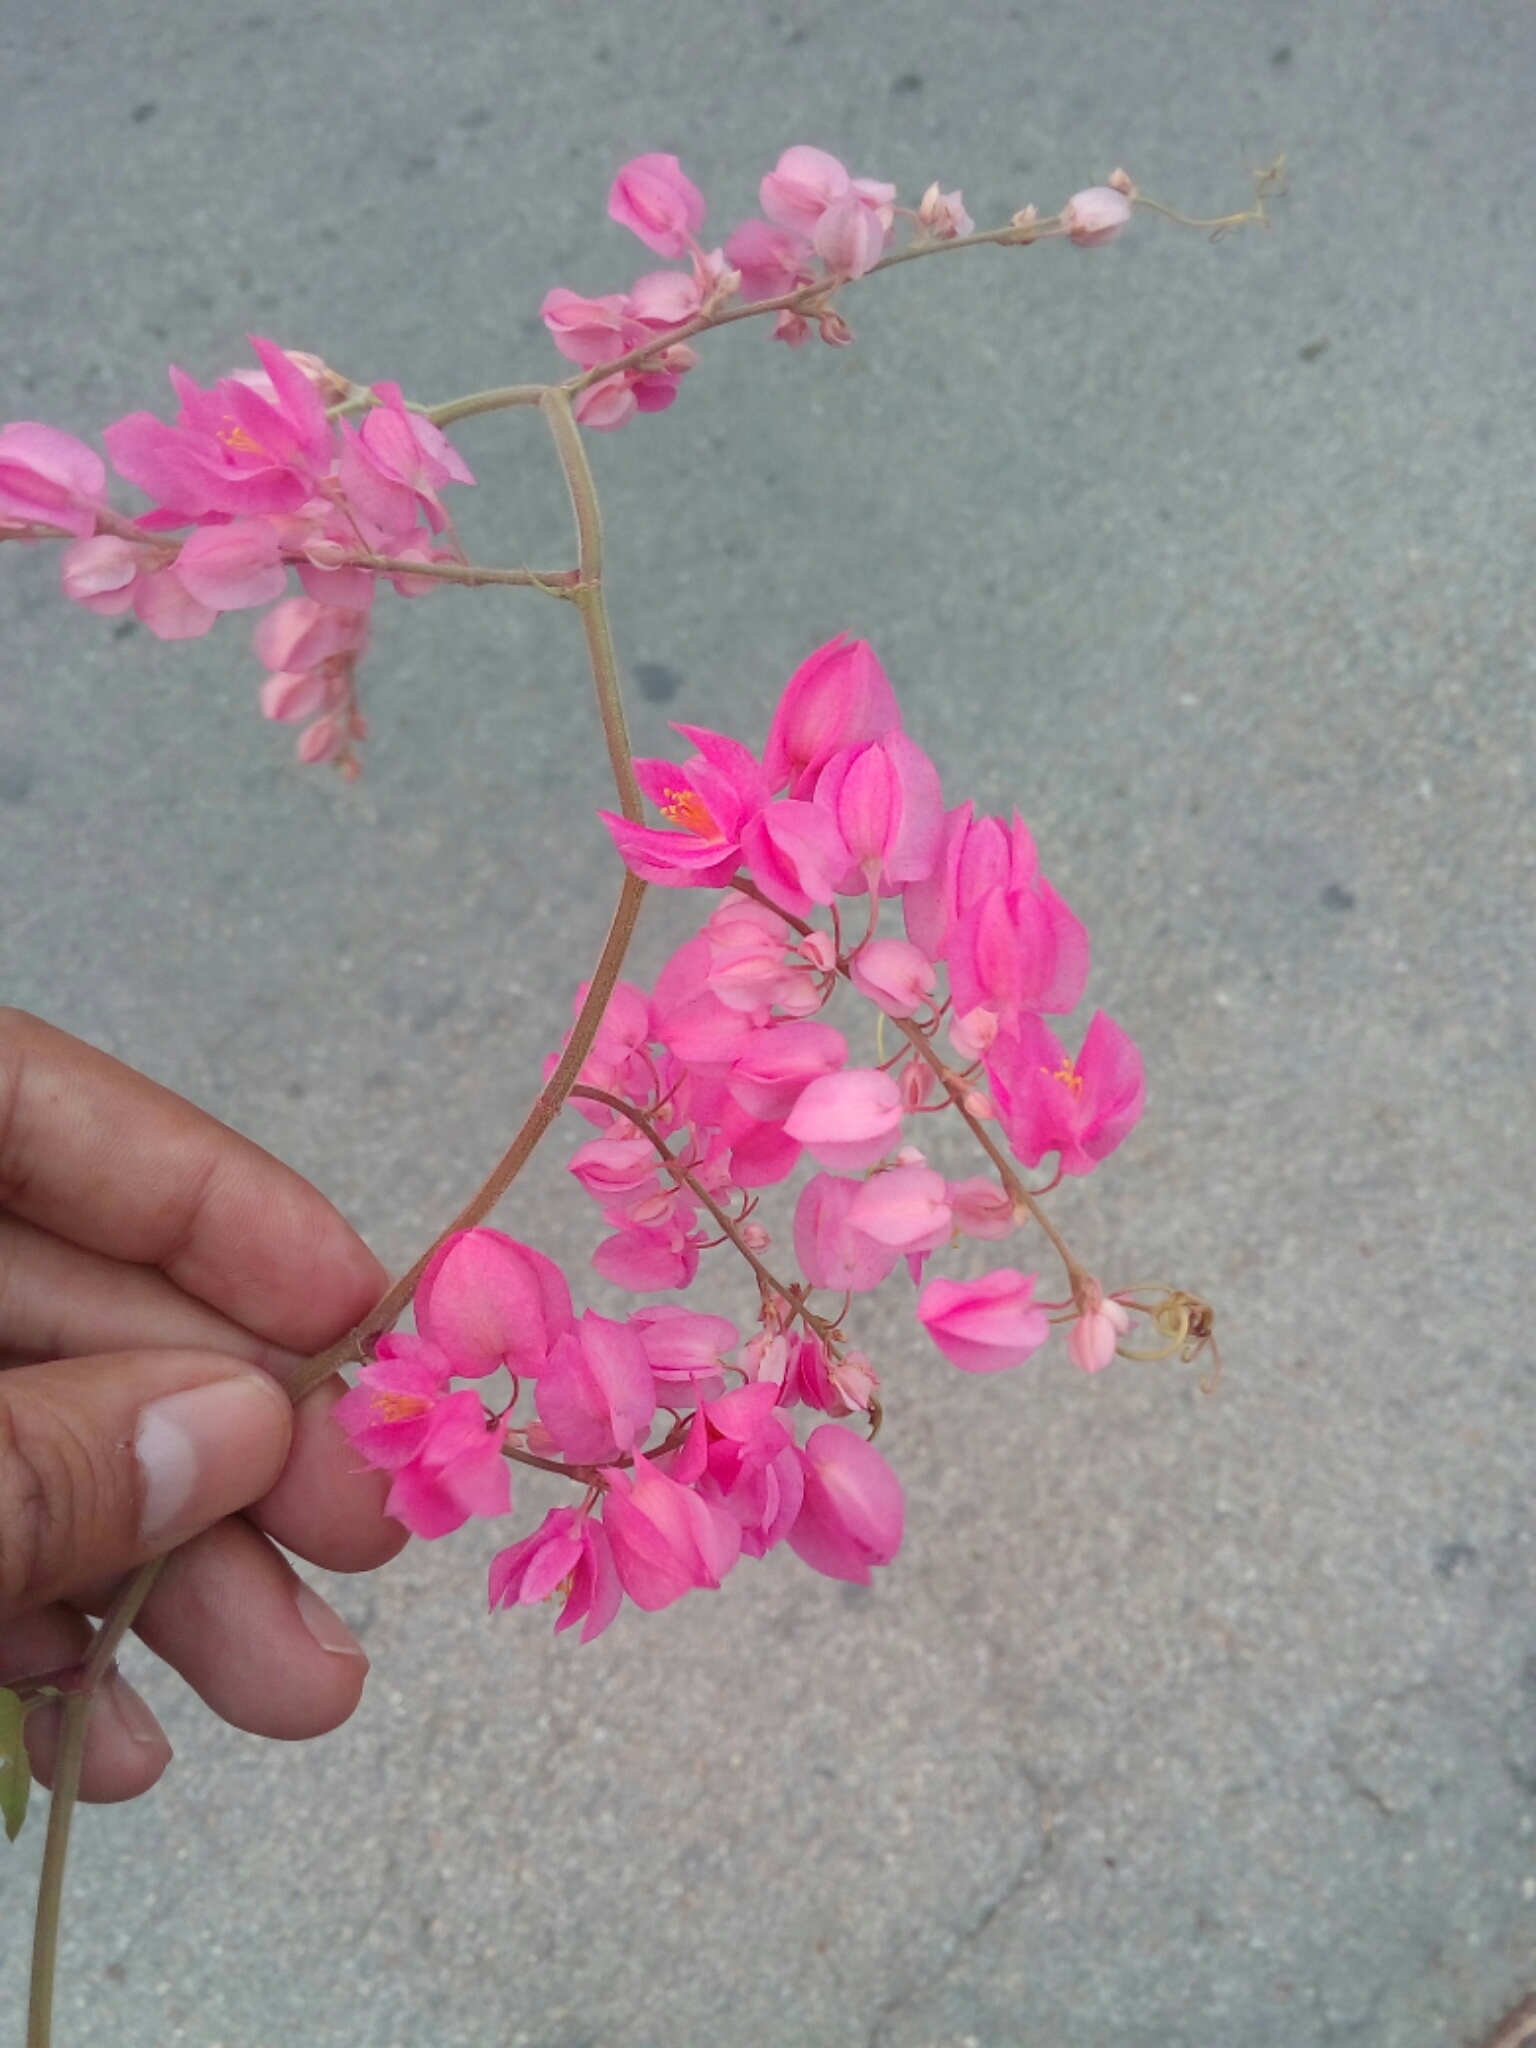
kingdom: Plantae
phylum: Tracheophyta
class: Magnoliopsida
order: Caryophyllales
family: Polygonaceae
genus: Antigonon
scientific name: Antigonon leptopus
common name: Coral vine
